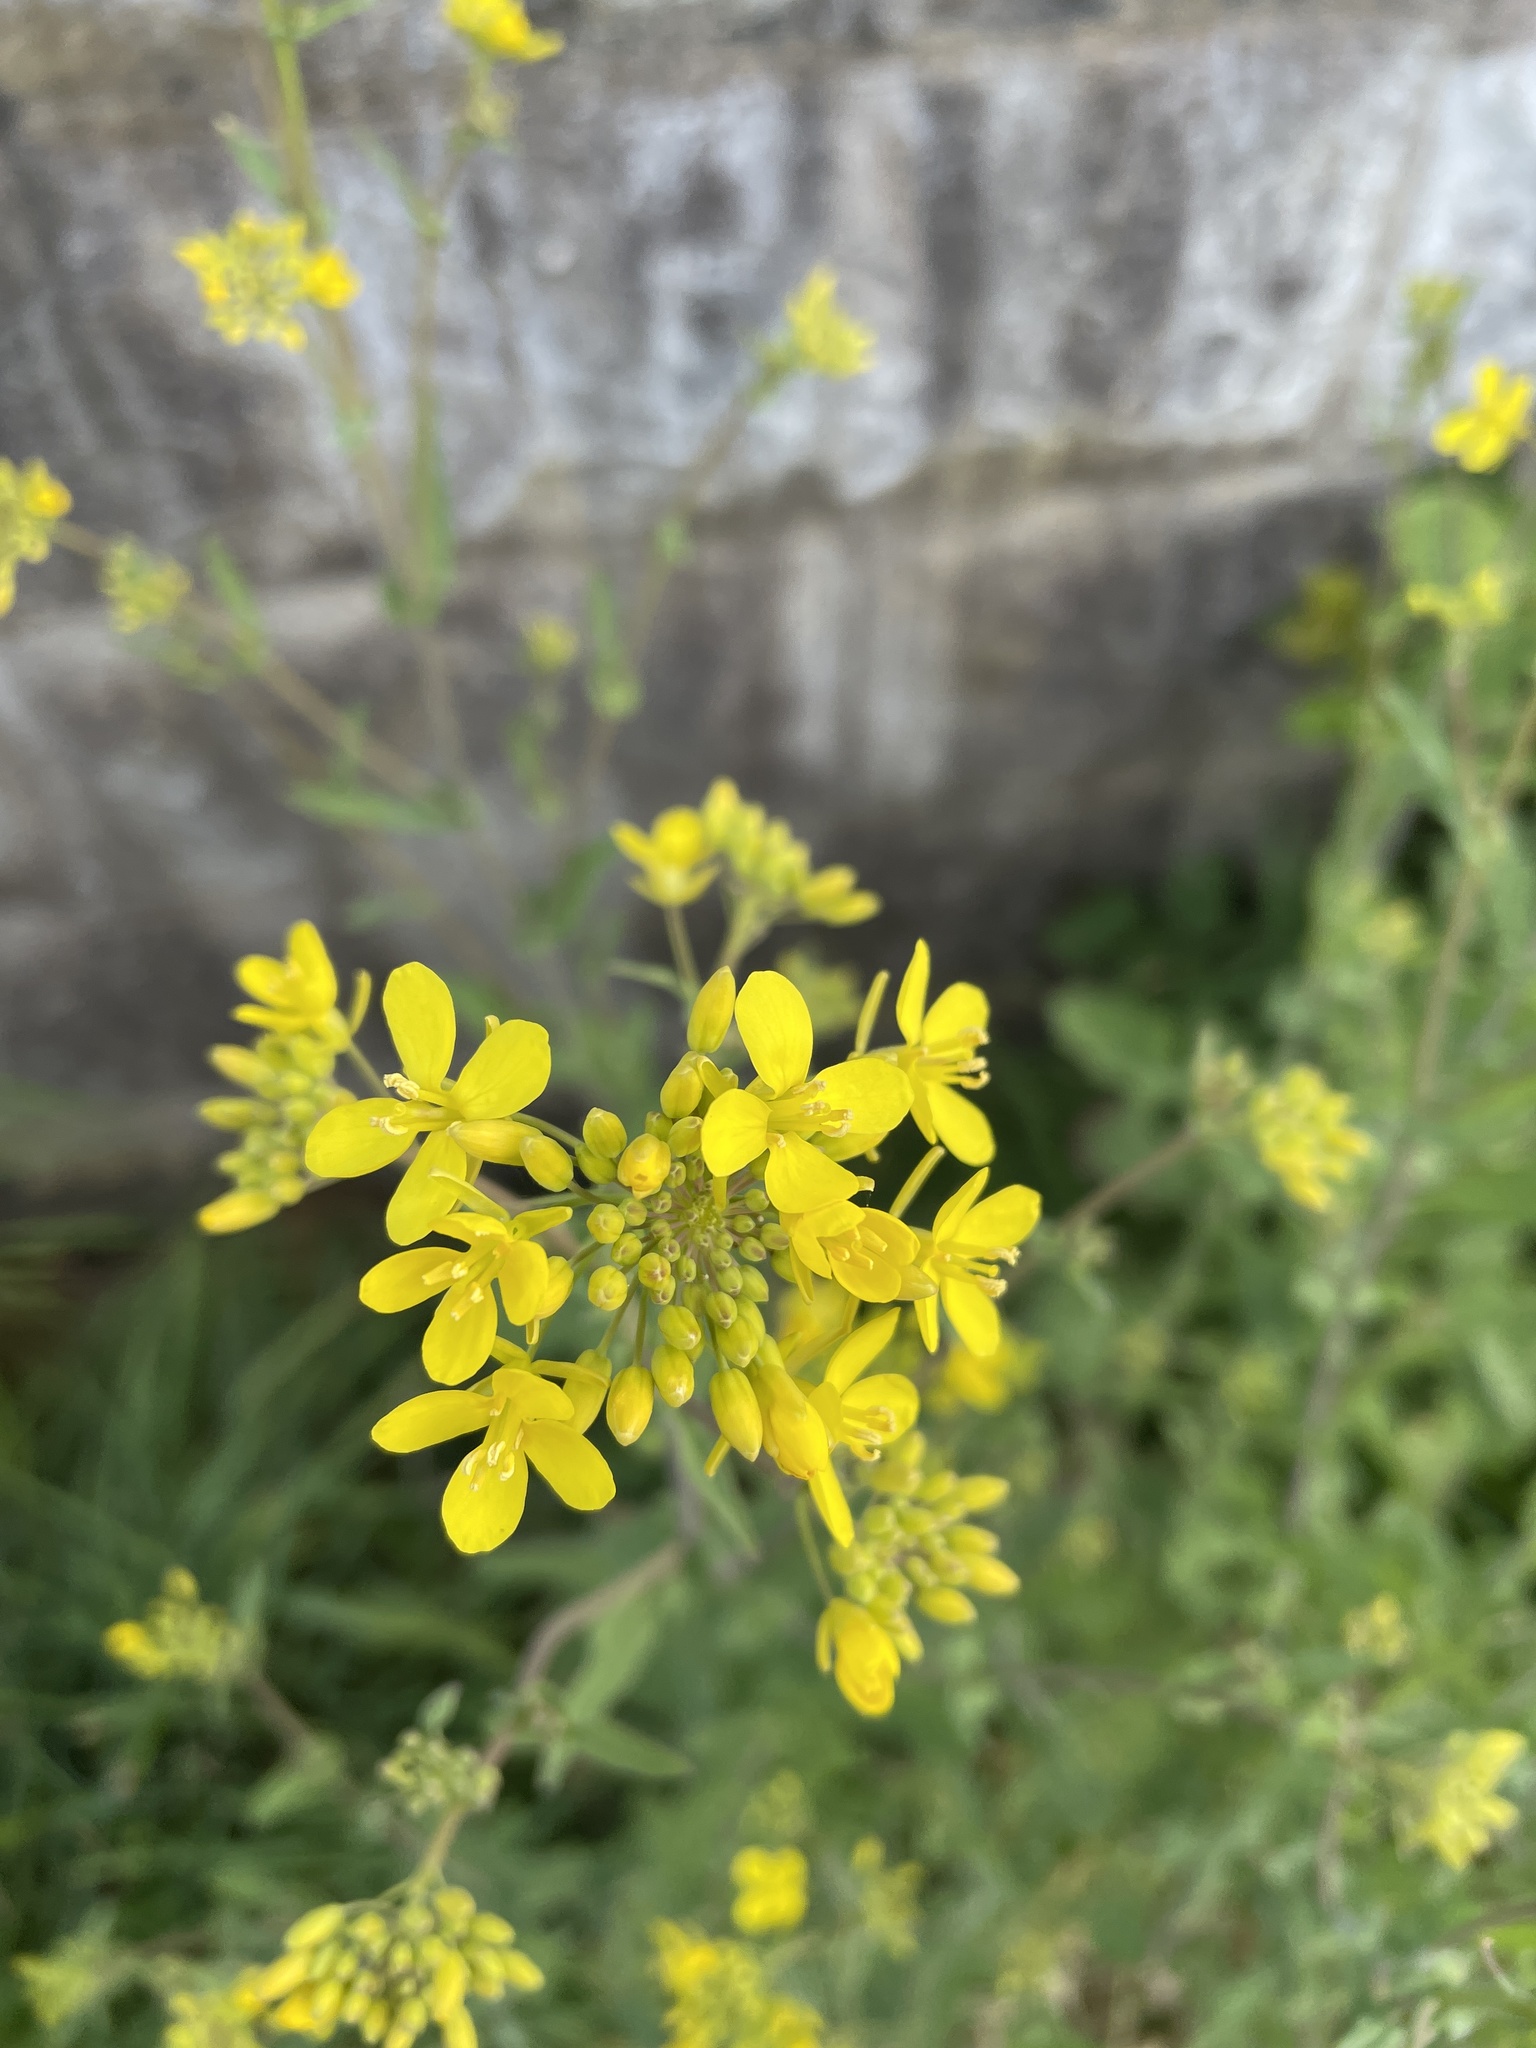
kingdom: Plantae
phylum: Tracheophyta
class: Magnoliopsida
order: Brassicales
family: Brassicaceae
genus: Brassica
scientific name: Brassica napus
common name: Rape
